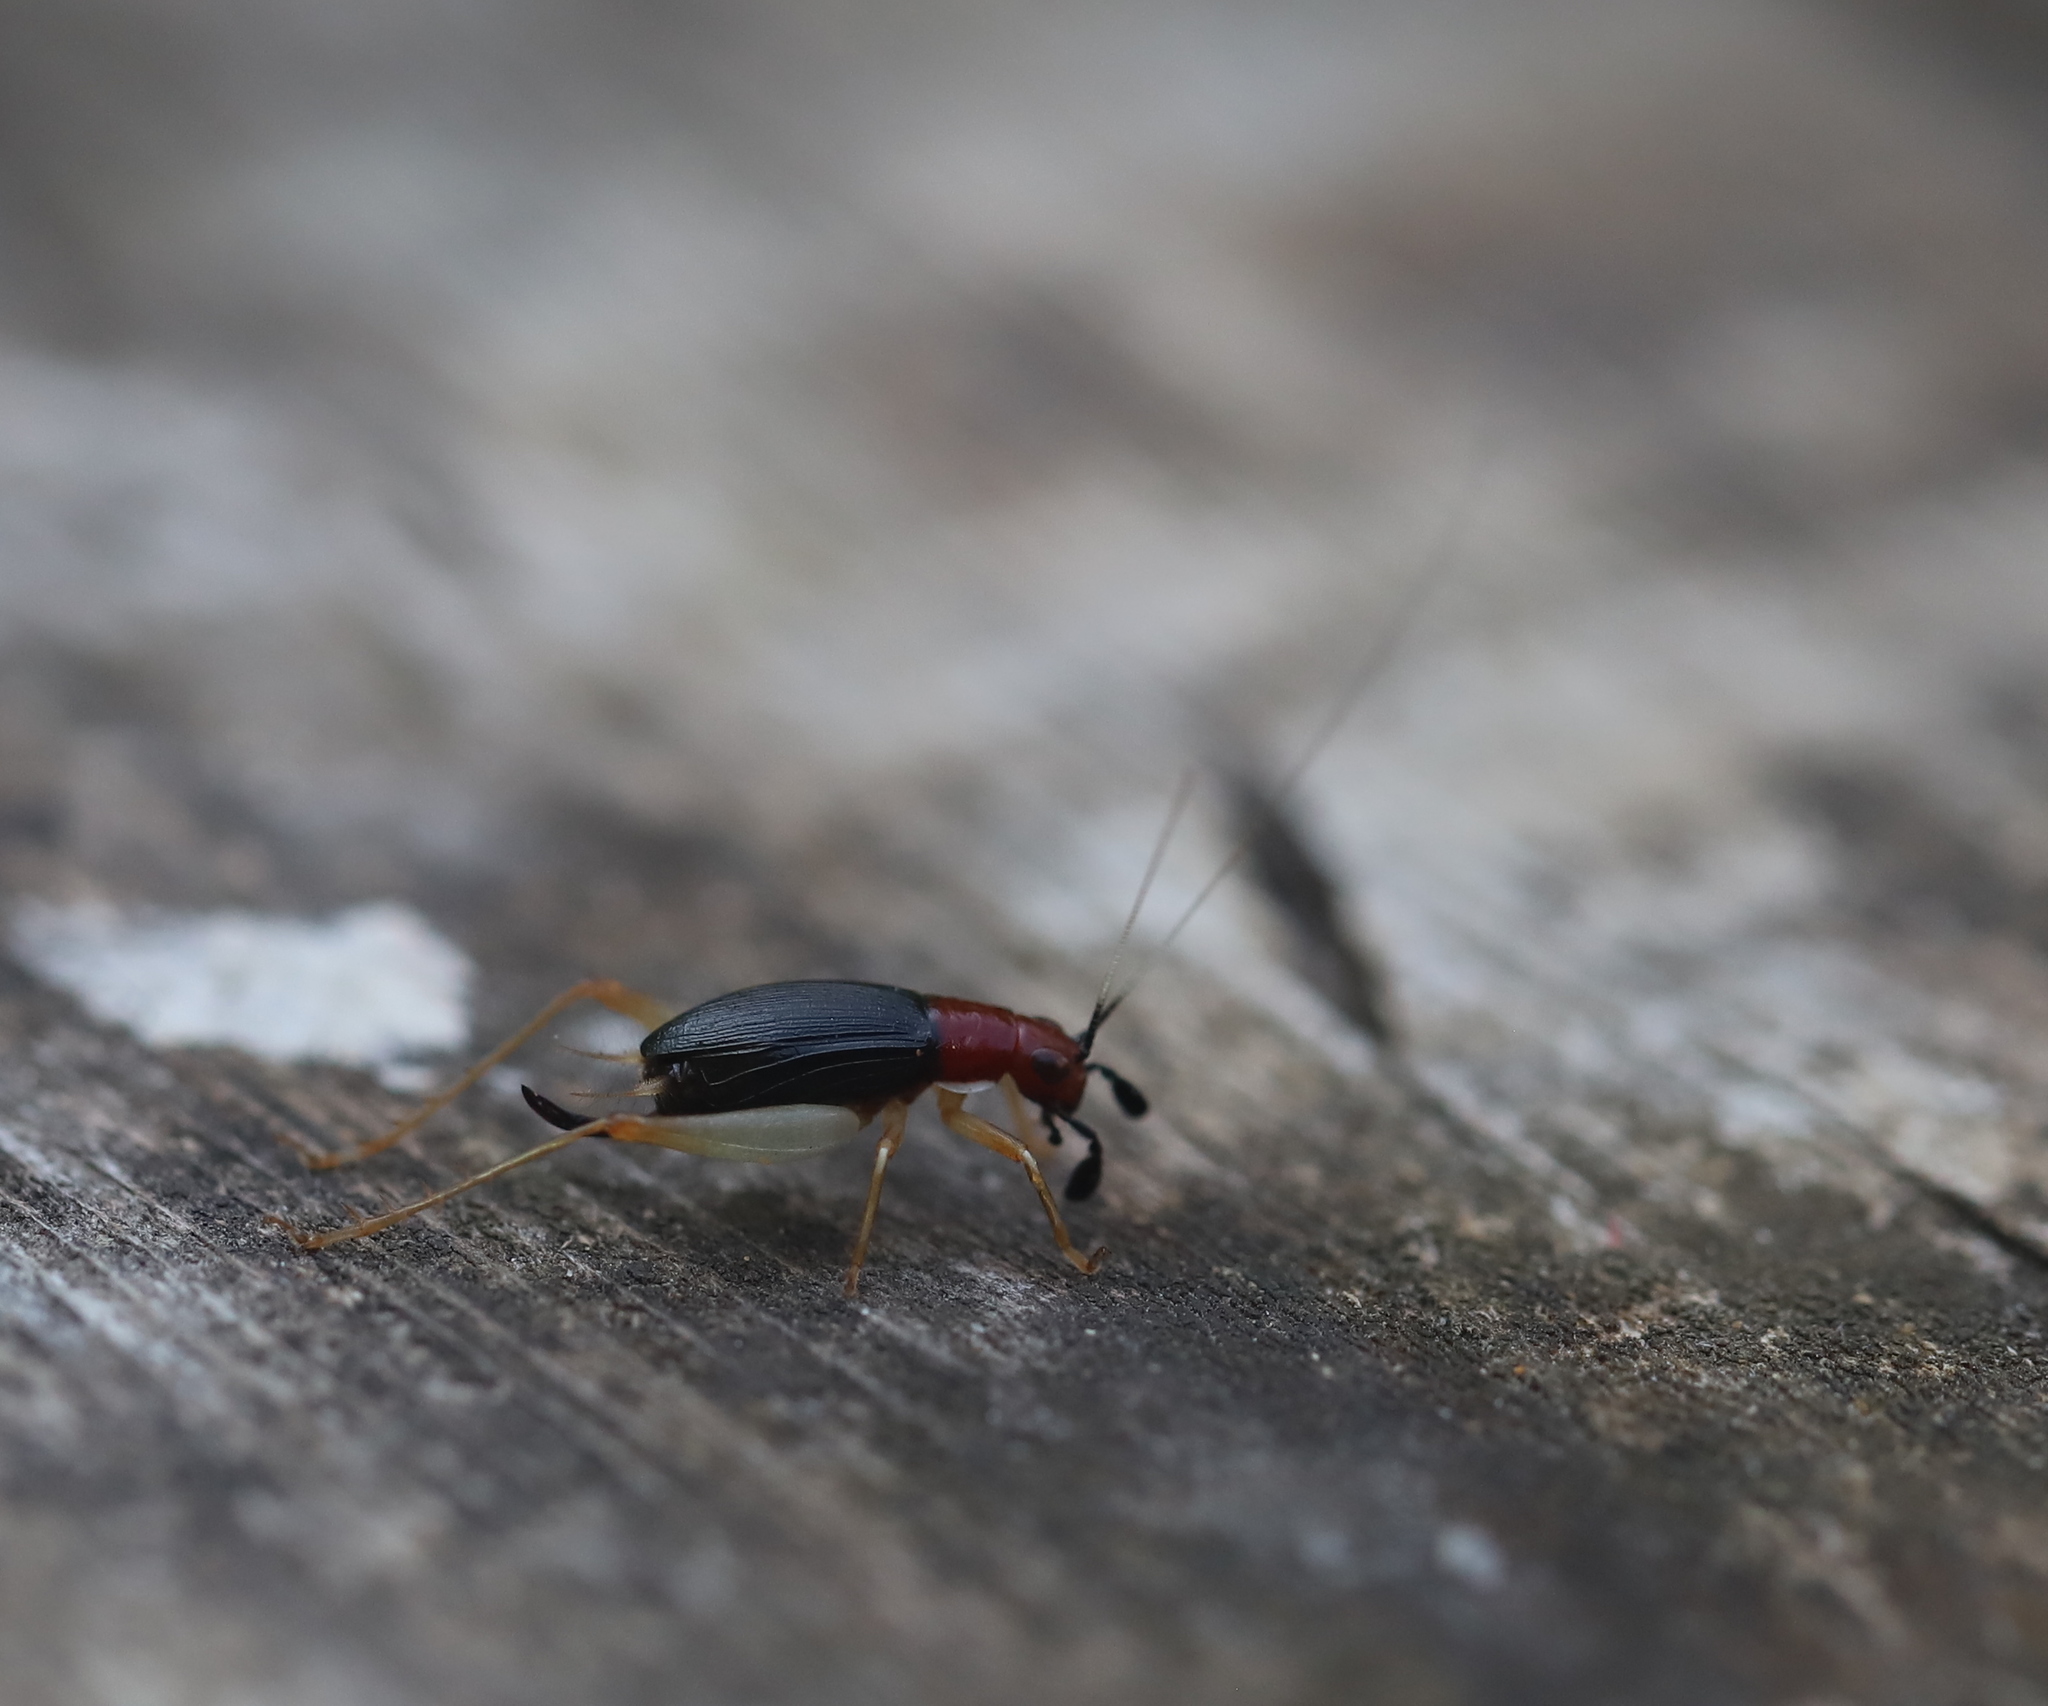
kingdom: Animalia
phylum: Arthropoda
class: Insecta
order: Orthoptera
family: Trigonidiidae
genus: Phyllopalpus
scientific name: Phyllopalpus pulchellus
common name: Handsome trig
